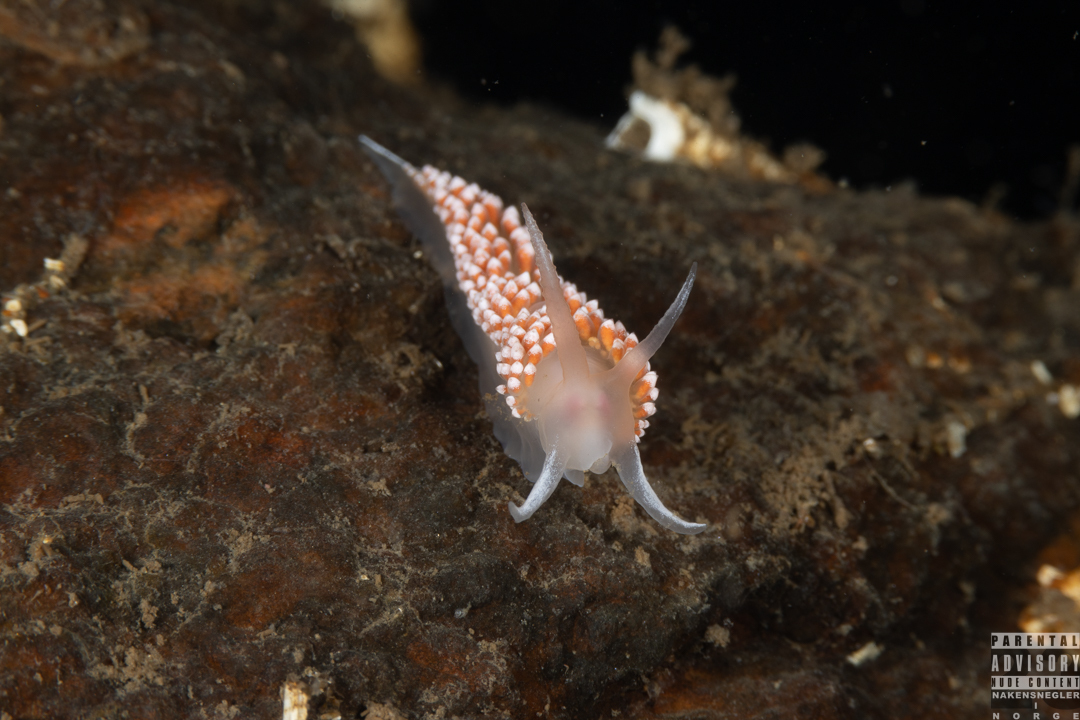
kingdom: Animalia
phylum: Mollusca
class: Gastropoda
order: Nudibranchia
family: Coryphellidae
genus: Coryphella
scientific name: Coryphella verrucosa
